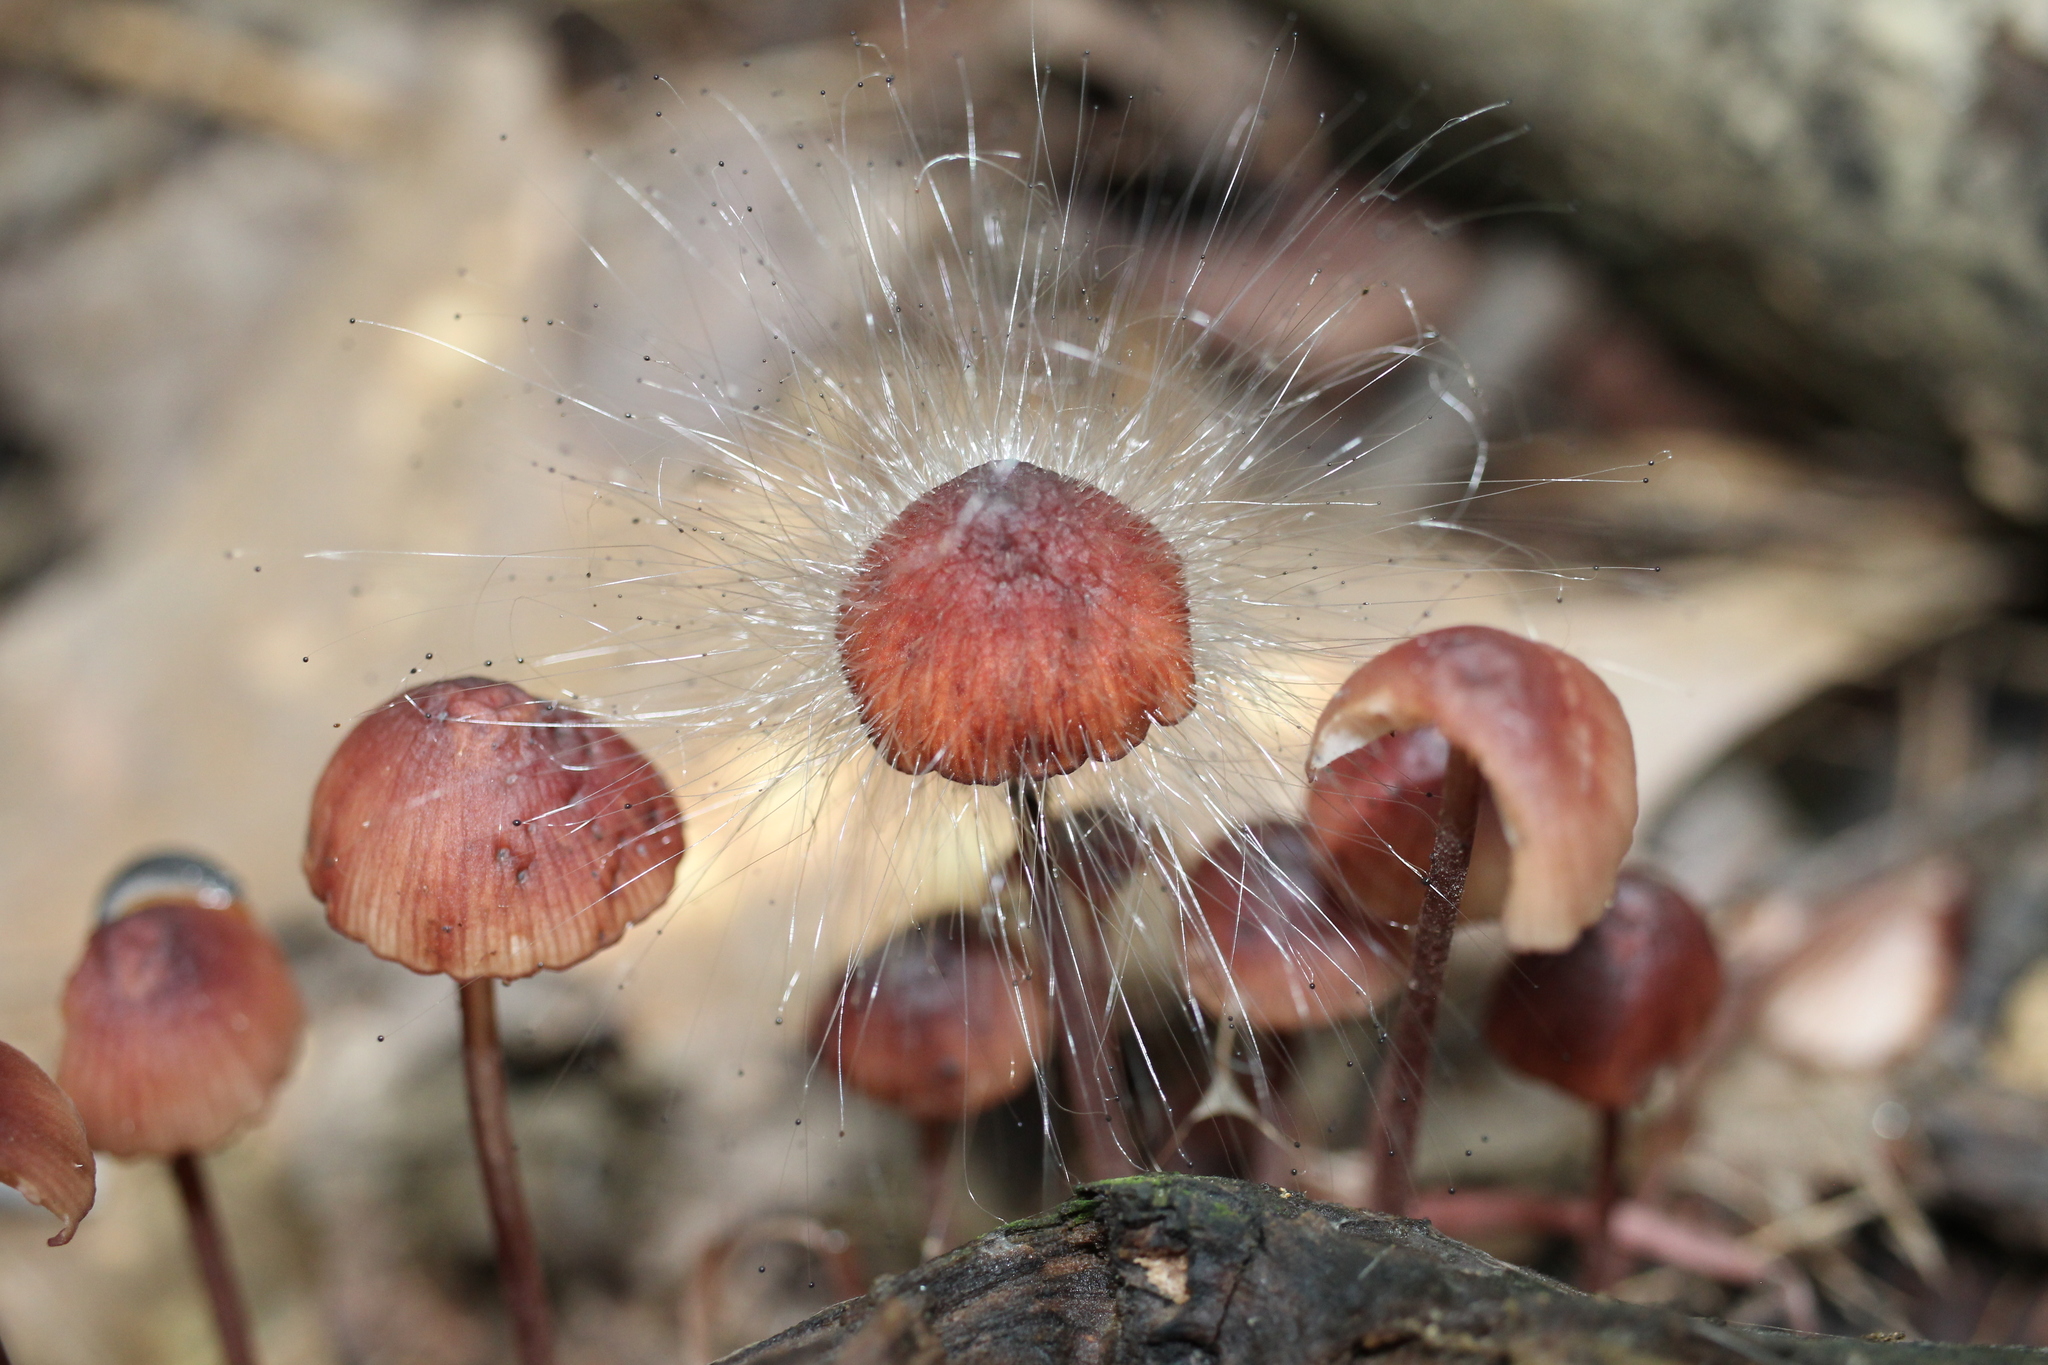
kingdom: Fungi
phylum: Mucoromycota
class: Mucoromycetes
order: Mucorales
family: Phycomycetaceae
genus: Spinellus
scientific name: Spinellus fusiger
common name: Bonnet mould
